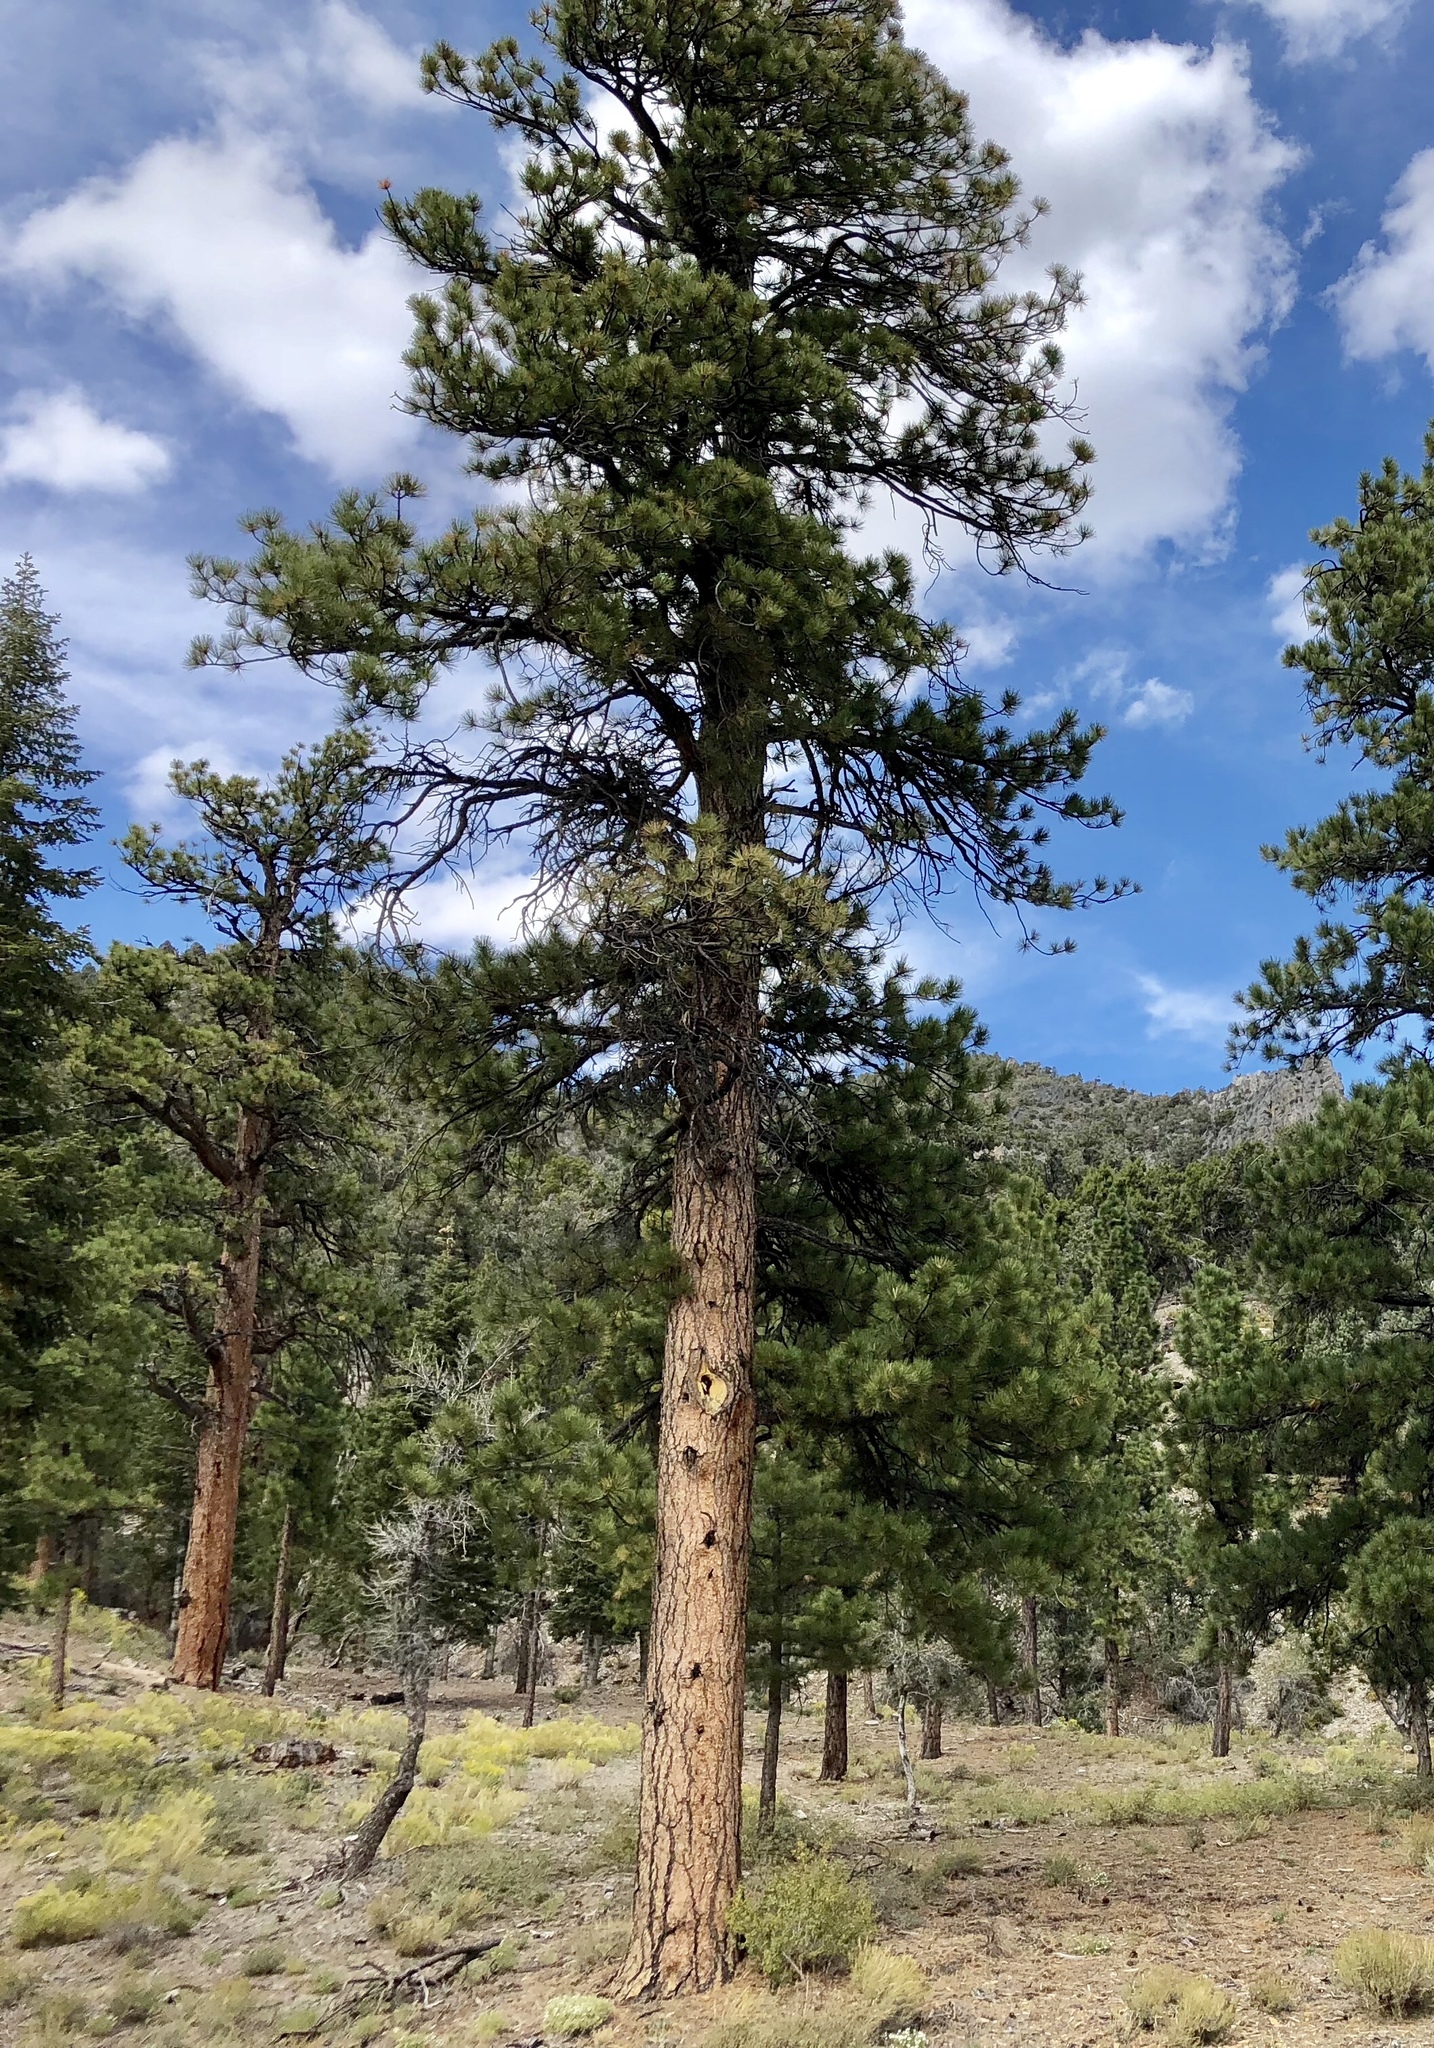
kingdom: Plantae
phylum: Tracheophyta
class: Pinopsida
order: Pinales
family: Pinaceae
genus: Pinus
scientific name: Pinus ponderosa
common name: Western yellow-pine
